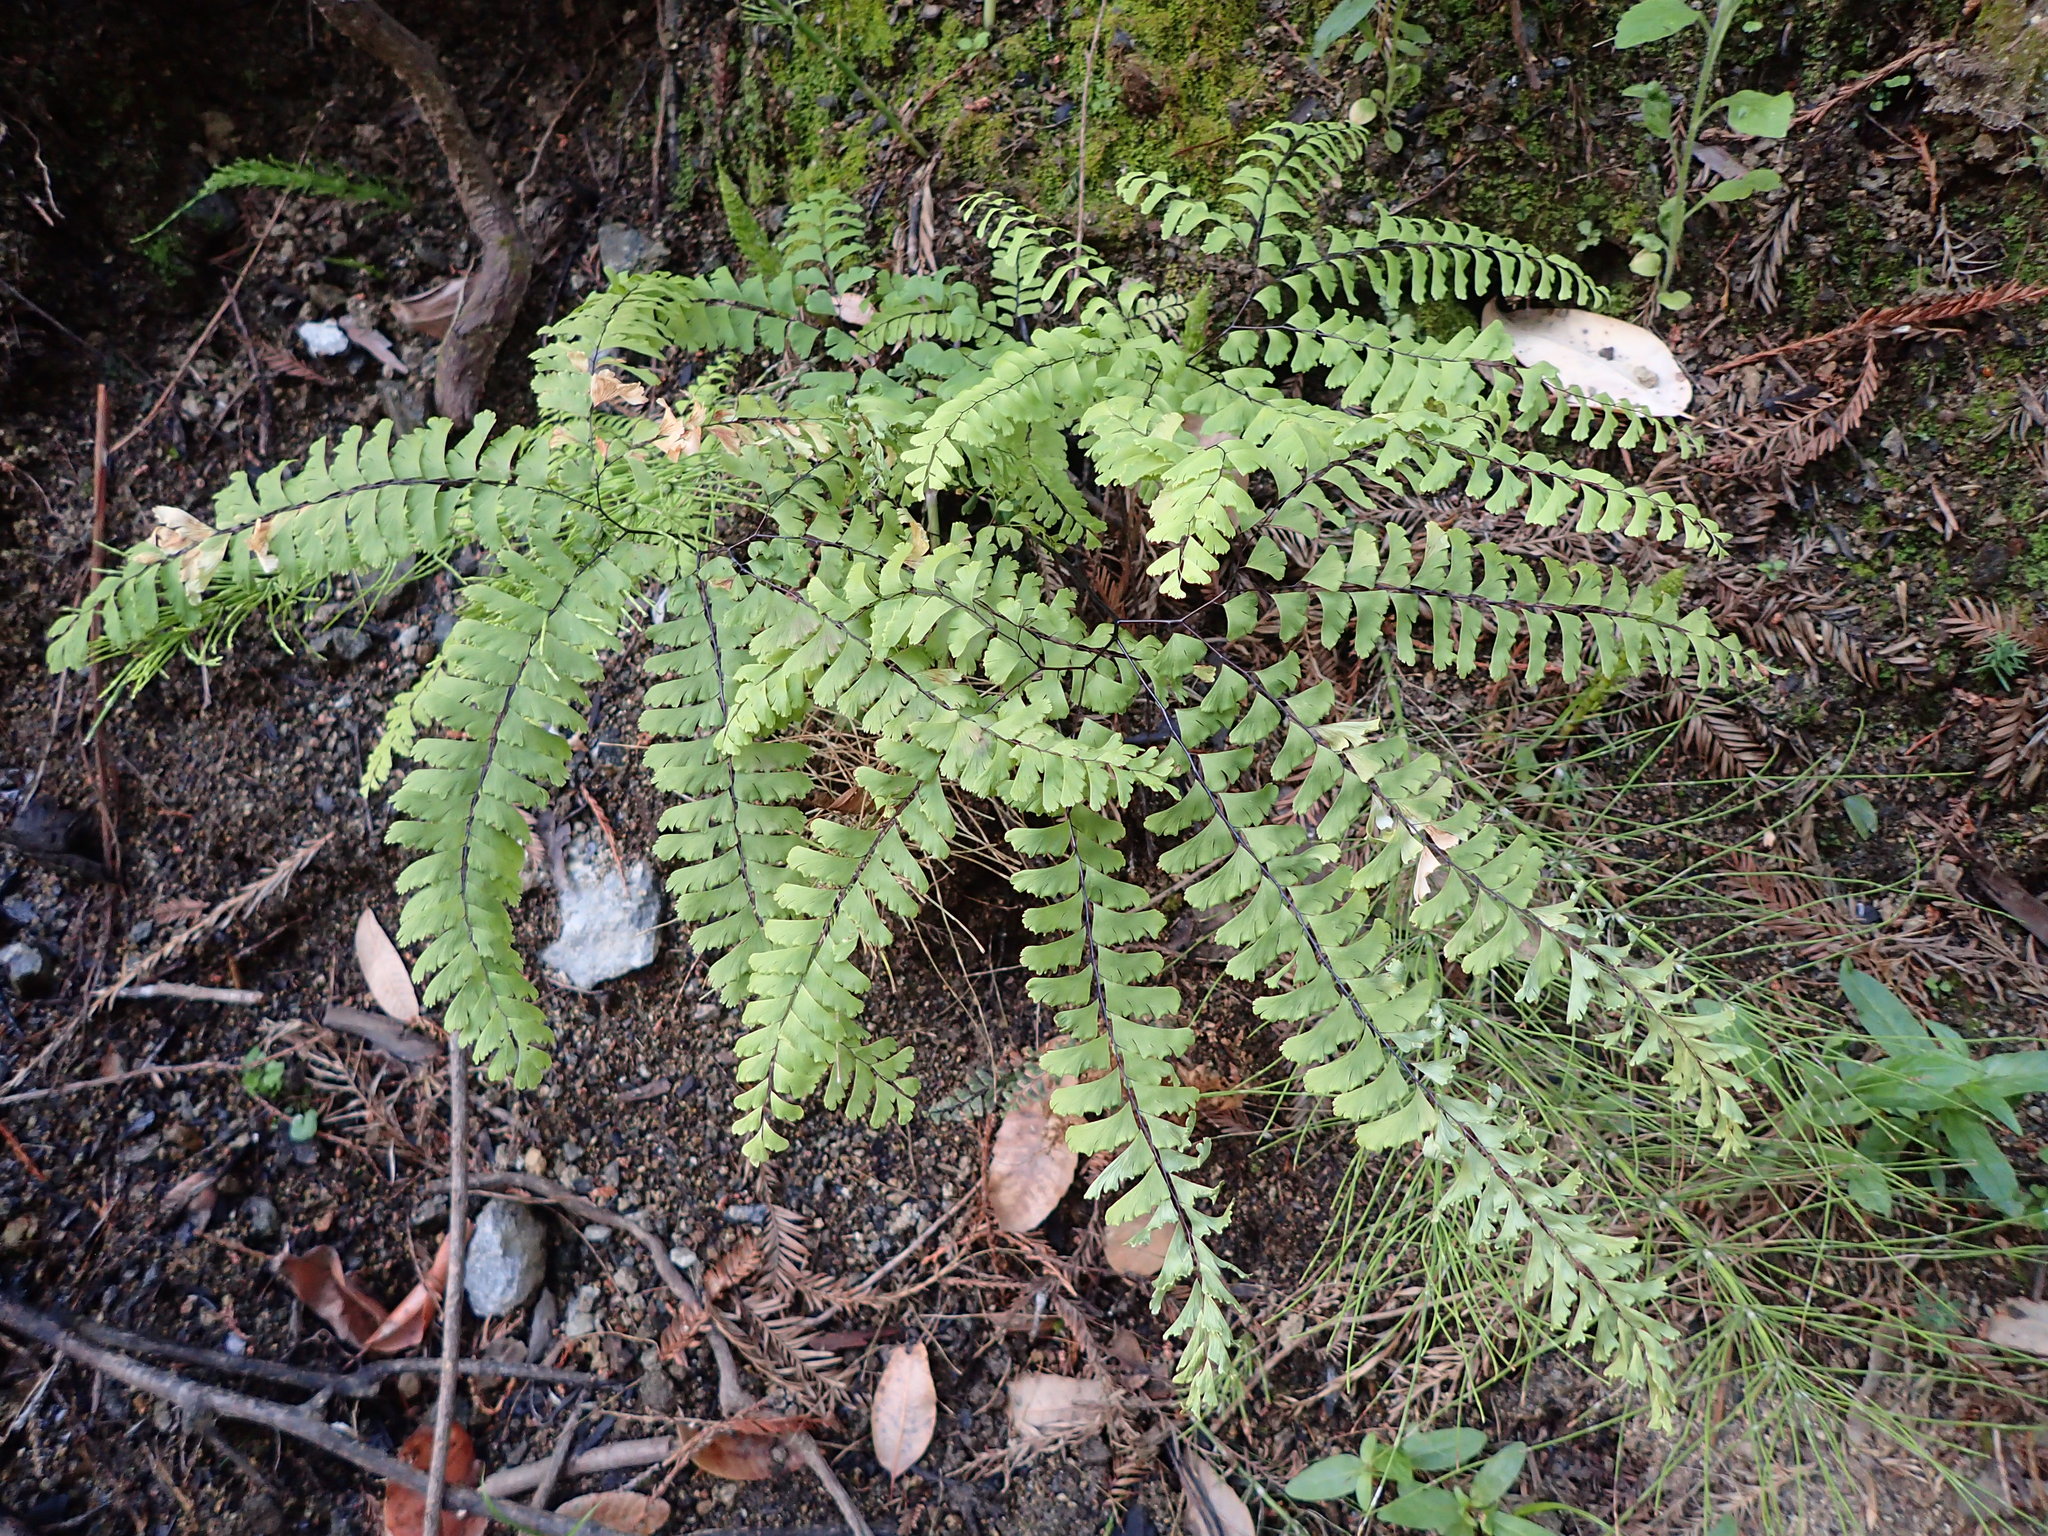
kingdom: Plantae
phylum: Tracheophyta
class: Polypodiopsida
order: Polypodiales
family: Pteridaceae
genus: Adiantum
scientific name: Adiantum aleuticum
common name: Aleutian maidenhair fern
